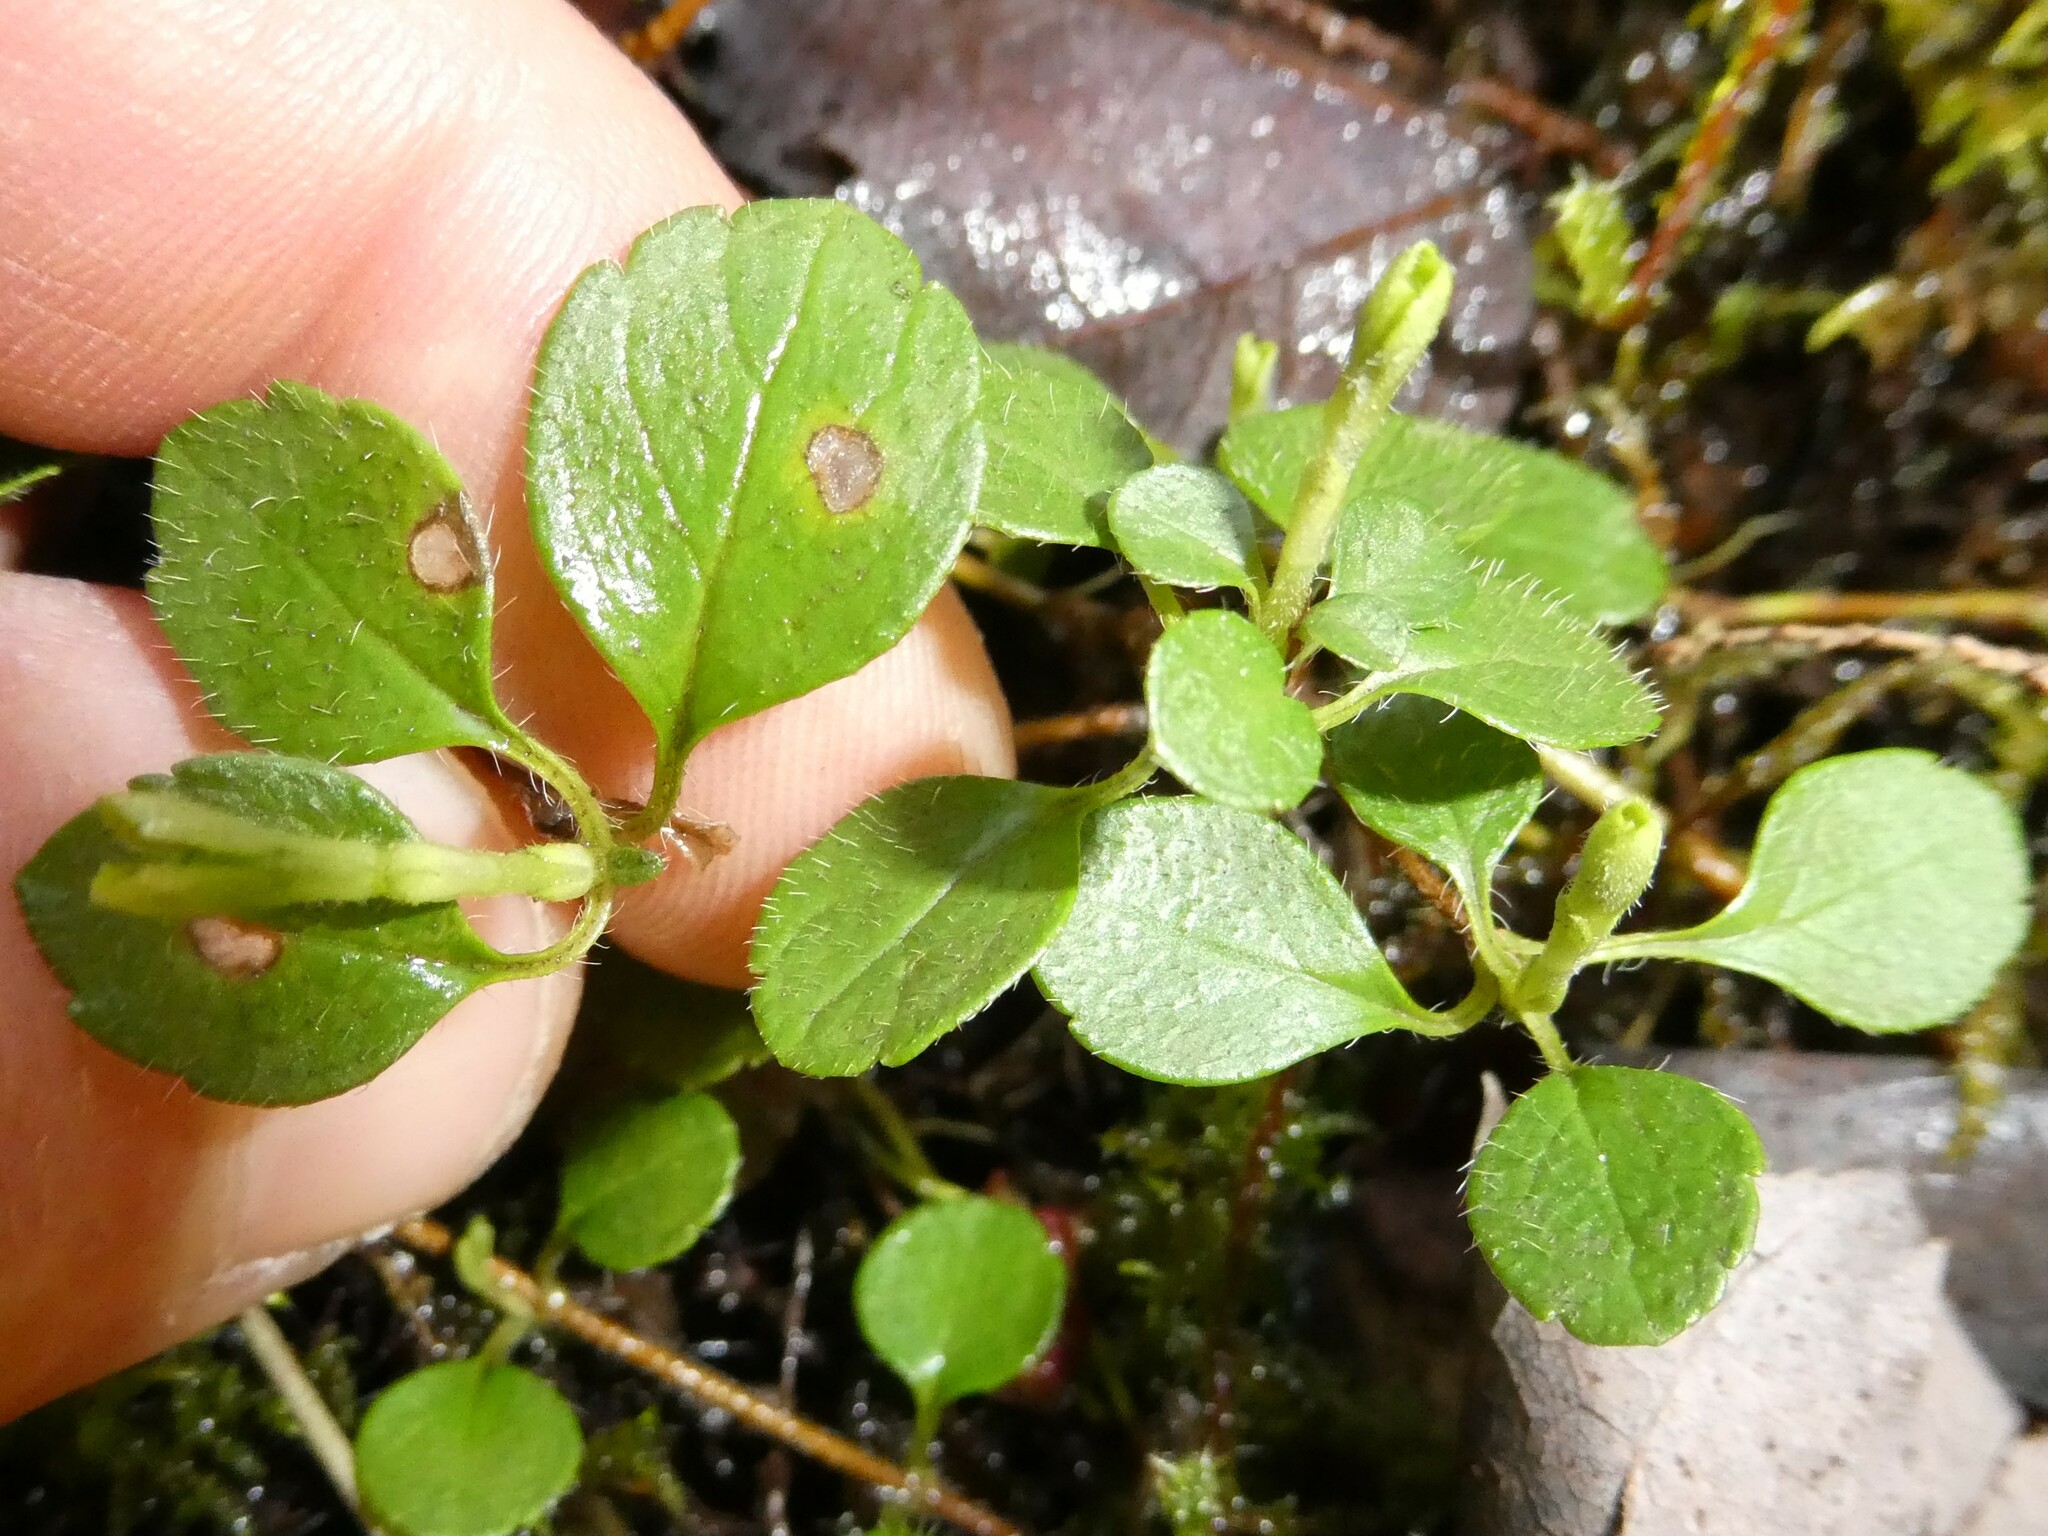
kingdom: Plantae
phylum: Tracheophyta
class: Magnoliopsida
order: Dipsacales
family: Caprifoliaceae
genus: Linnaea
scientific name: Linnaea borealis
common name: Twinflower
